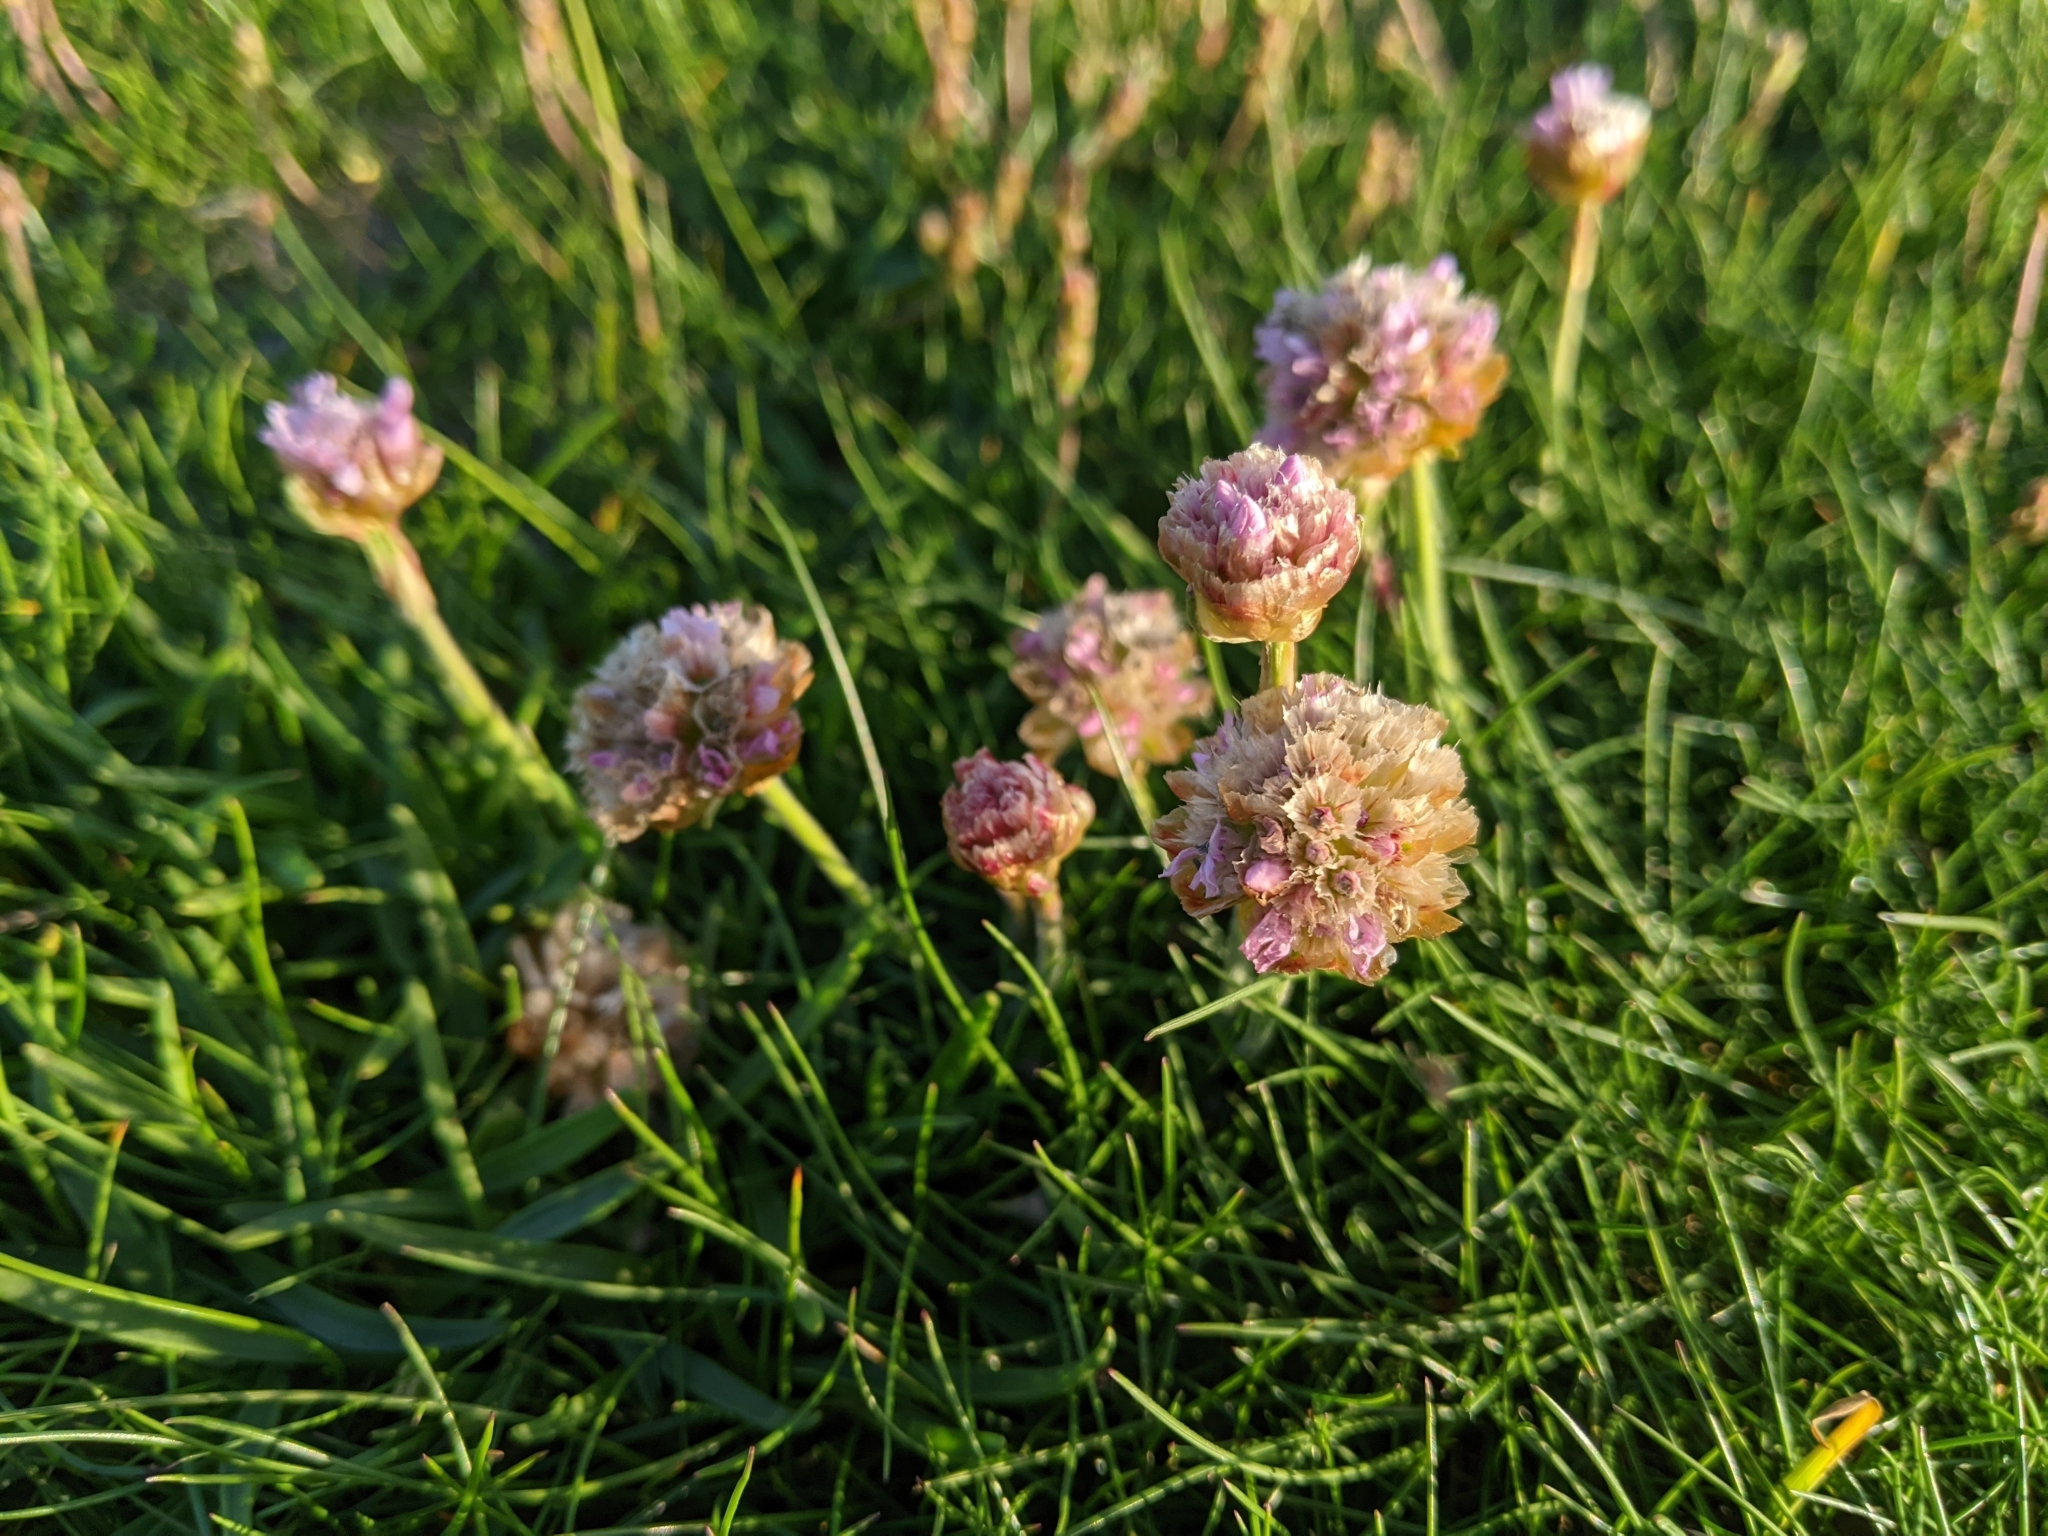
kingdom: Plantae
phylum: Tracheophyta
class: Magnoliopsida
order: Caryophyllales
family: Plumbaginaceae
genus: Armeria
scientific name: Armeria maritima
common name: Thrift
